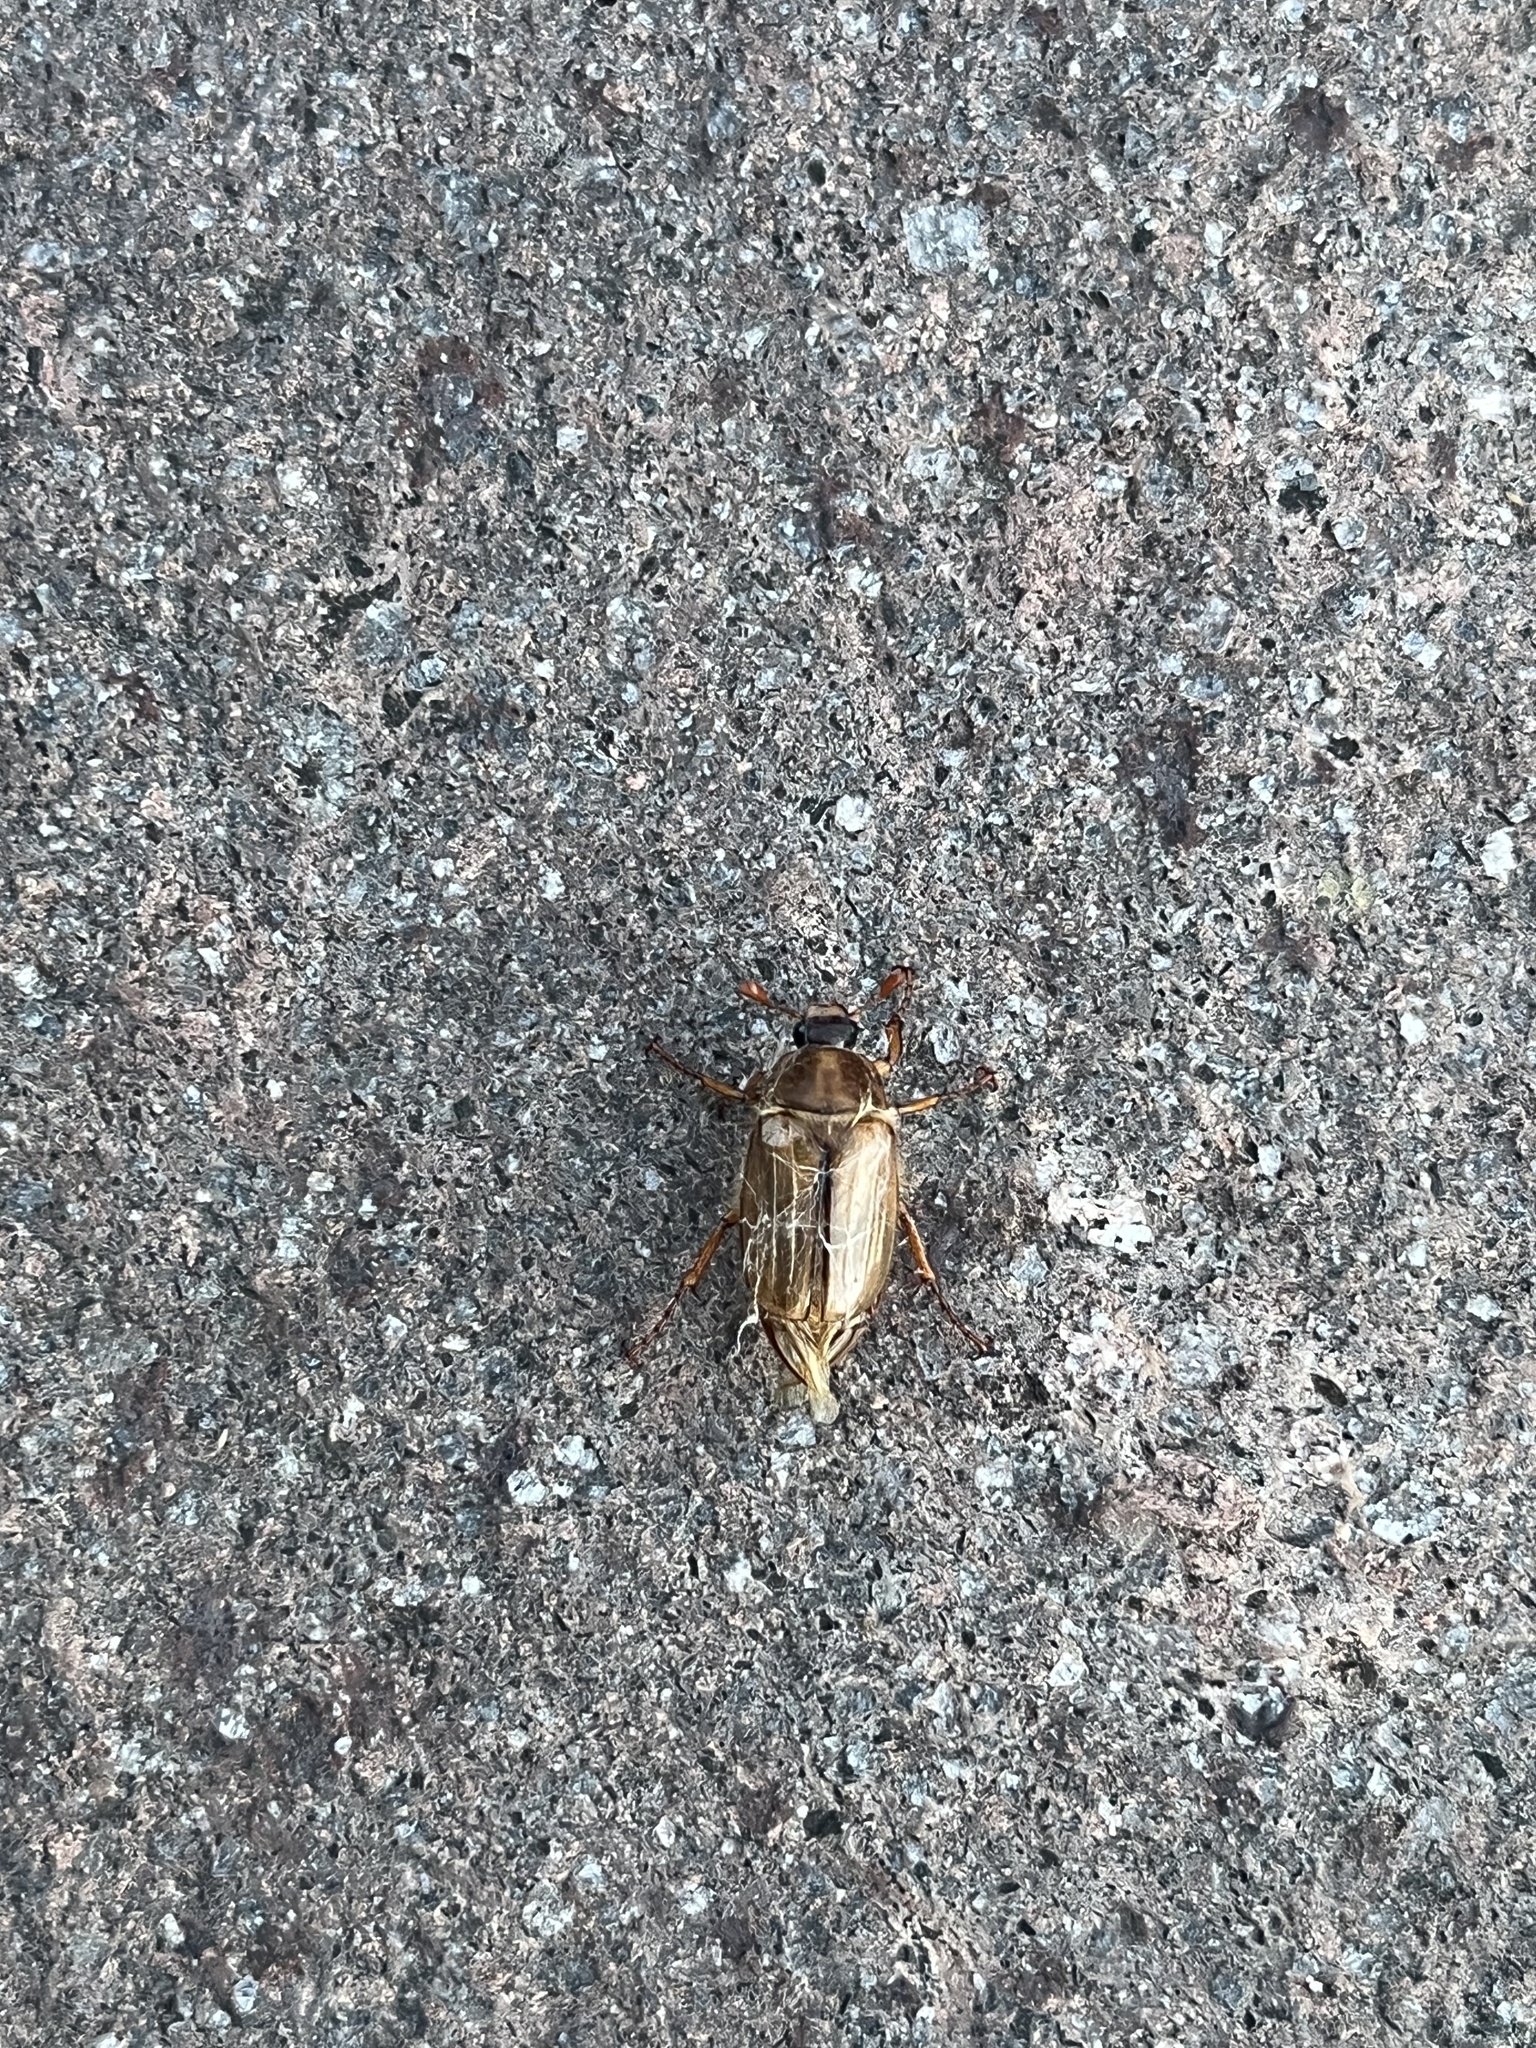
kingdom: Animalia
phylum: Arthropoda
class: Insecta
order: Coleoptera
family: Scarabaeidae
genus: Amphimallon
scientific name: Amphimallon solstitiale
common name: Summer chafer
